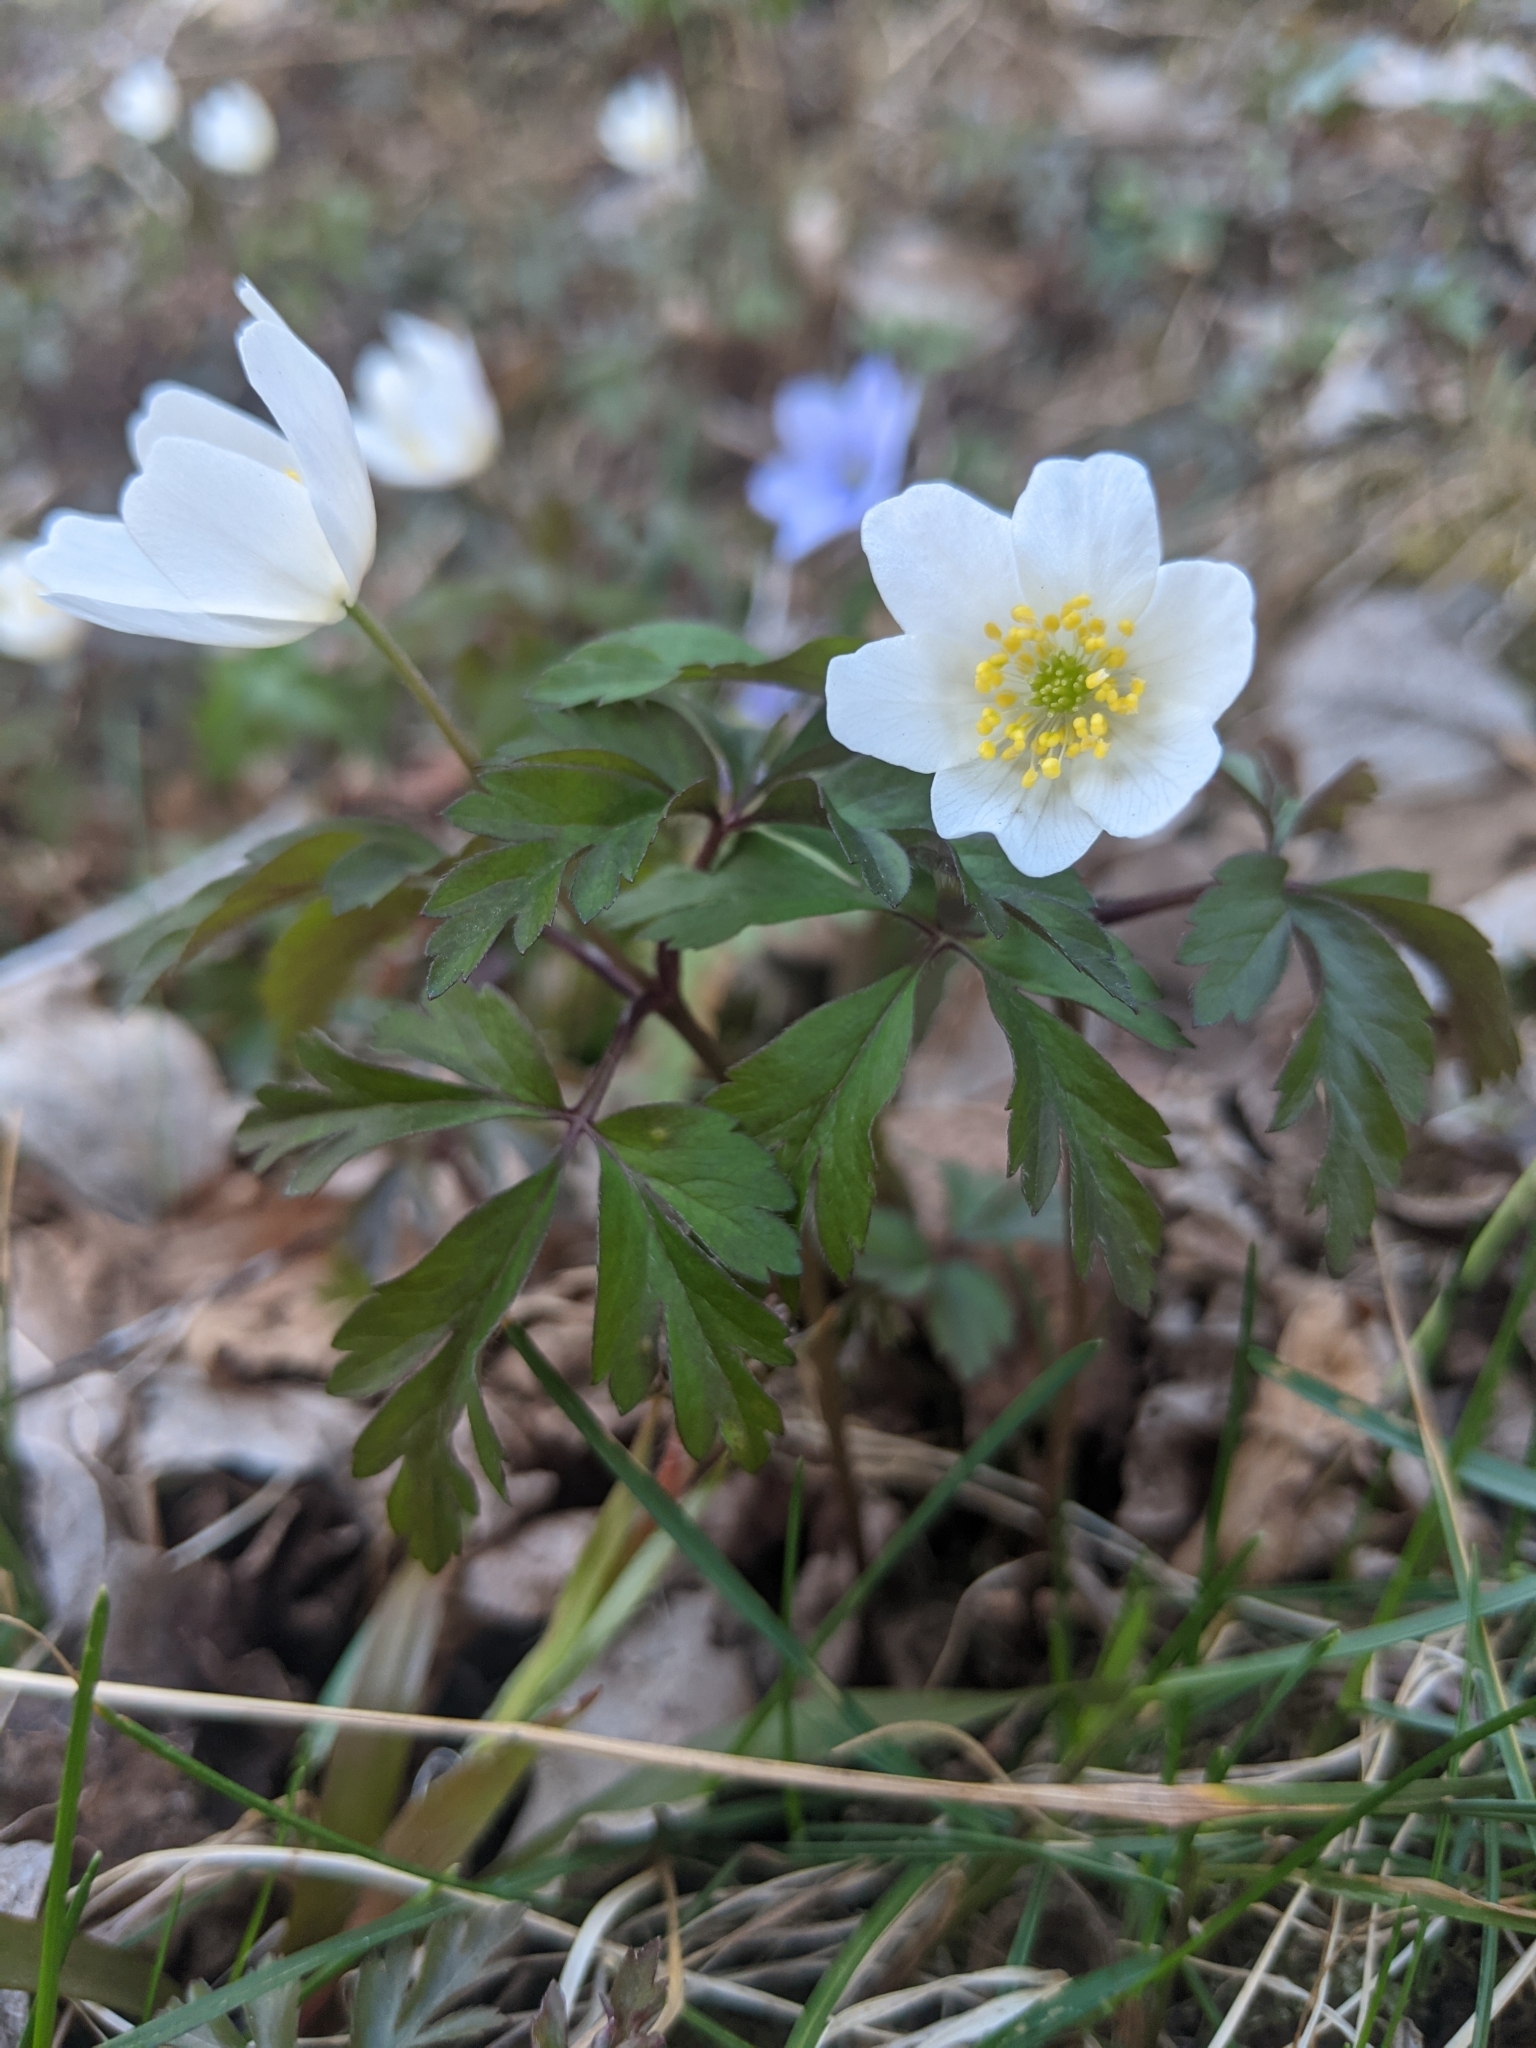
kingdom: Plantae
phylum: Tracheophyta
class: Magnoliopsida
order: Ranunculales
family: Ranunculaceae
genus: Anemone
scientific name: Anemone nemorosa
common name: Wood anemone
